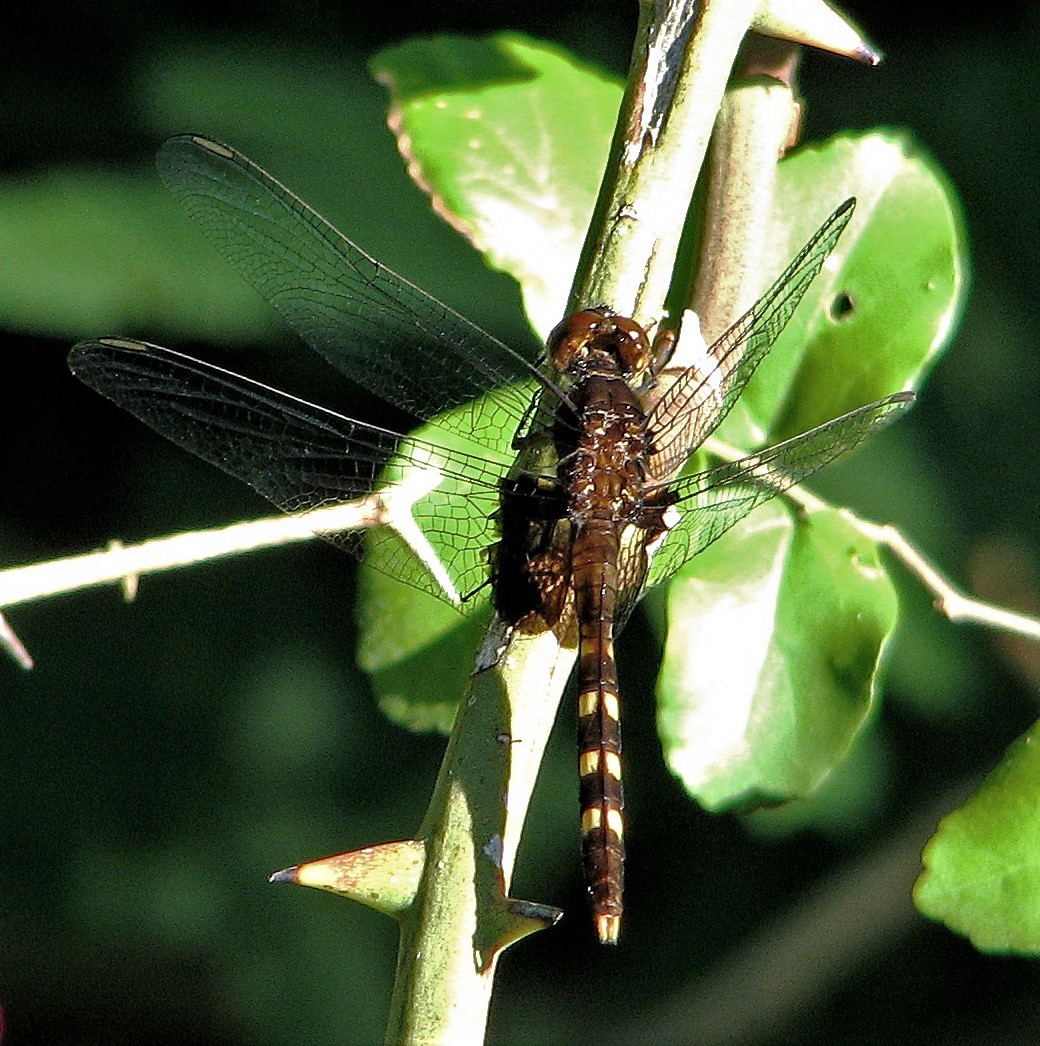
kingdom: Animalia
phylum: Arthropoda
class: Insecta
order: Odonata
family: Libellulidae
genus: Erythemis
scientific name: Erythemis plebeja
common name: Pin-tailed pondhawk
